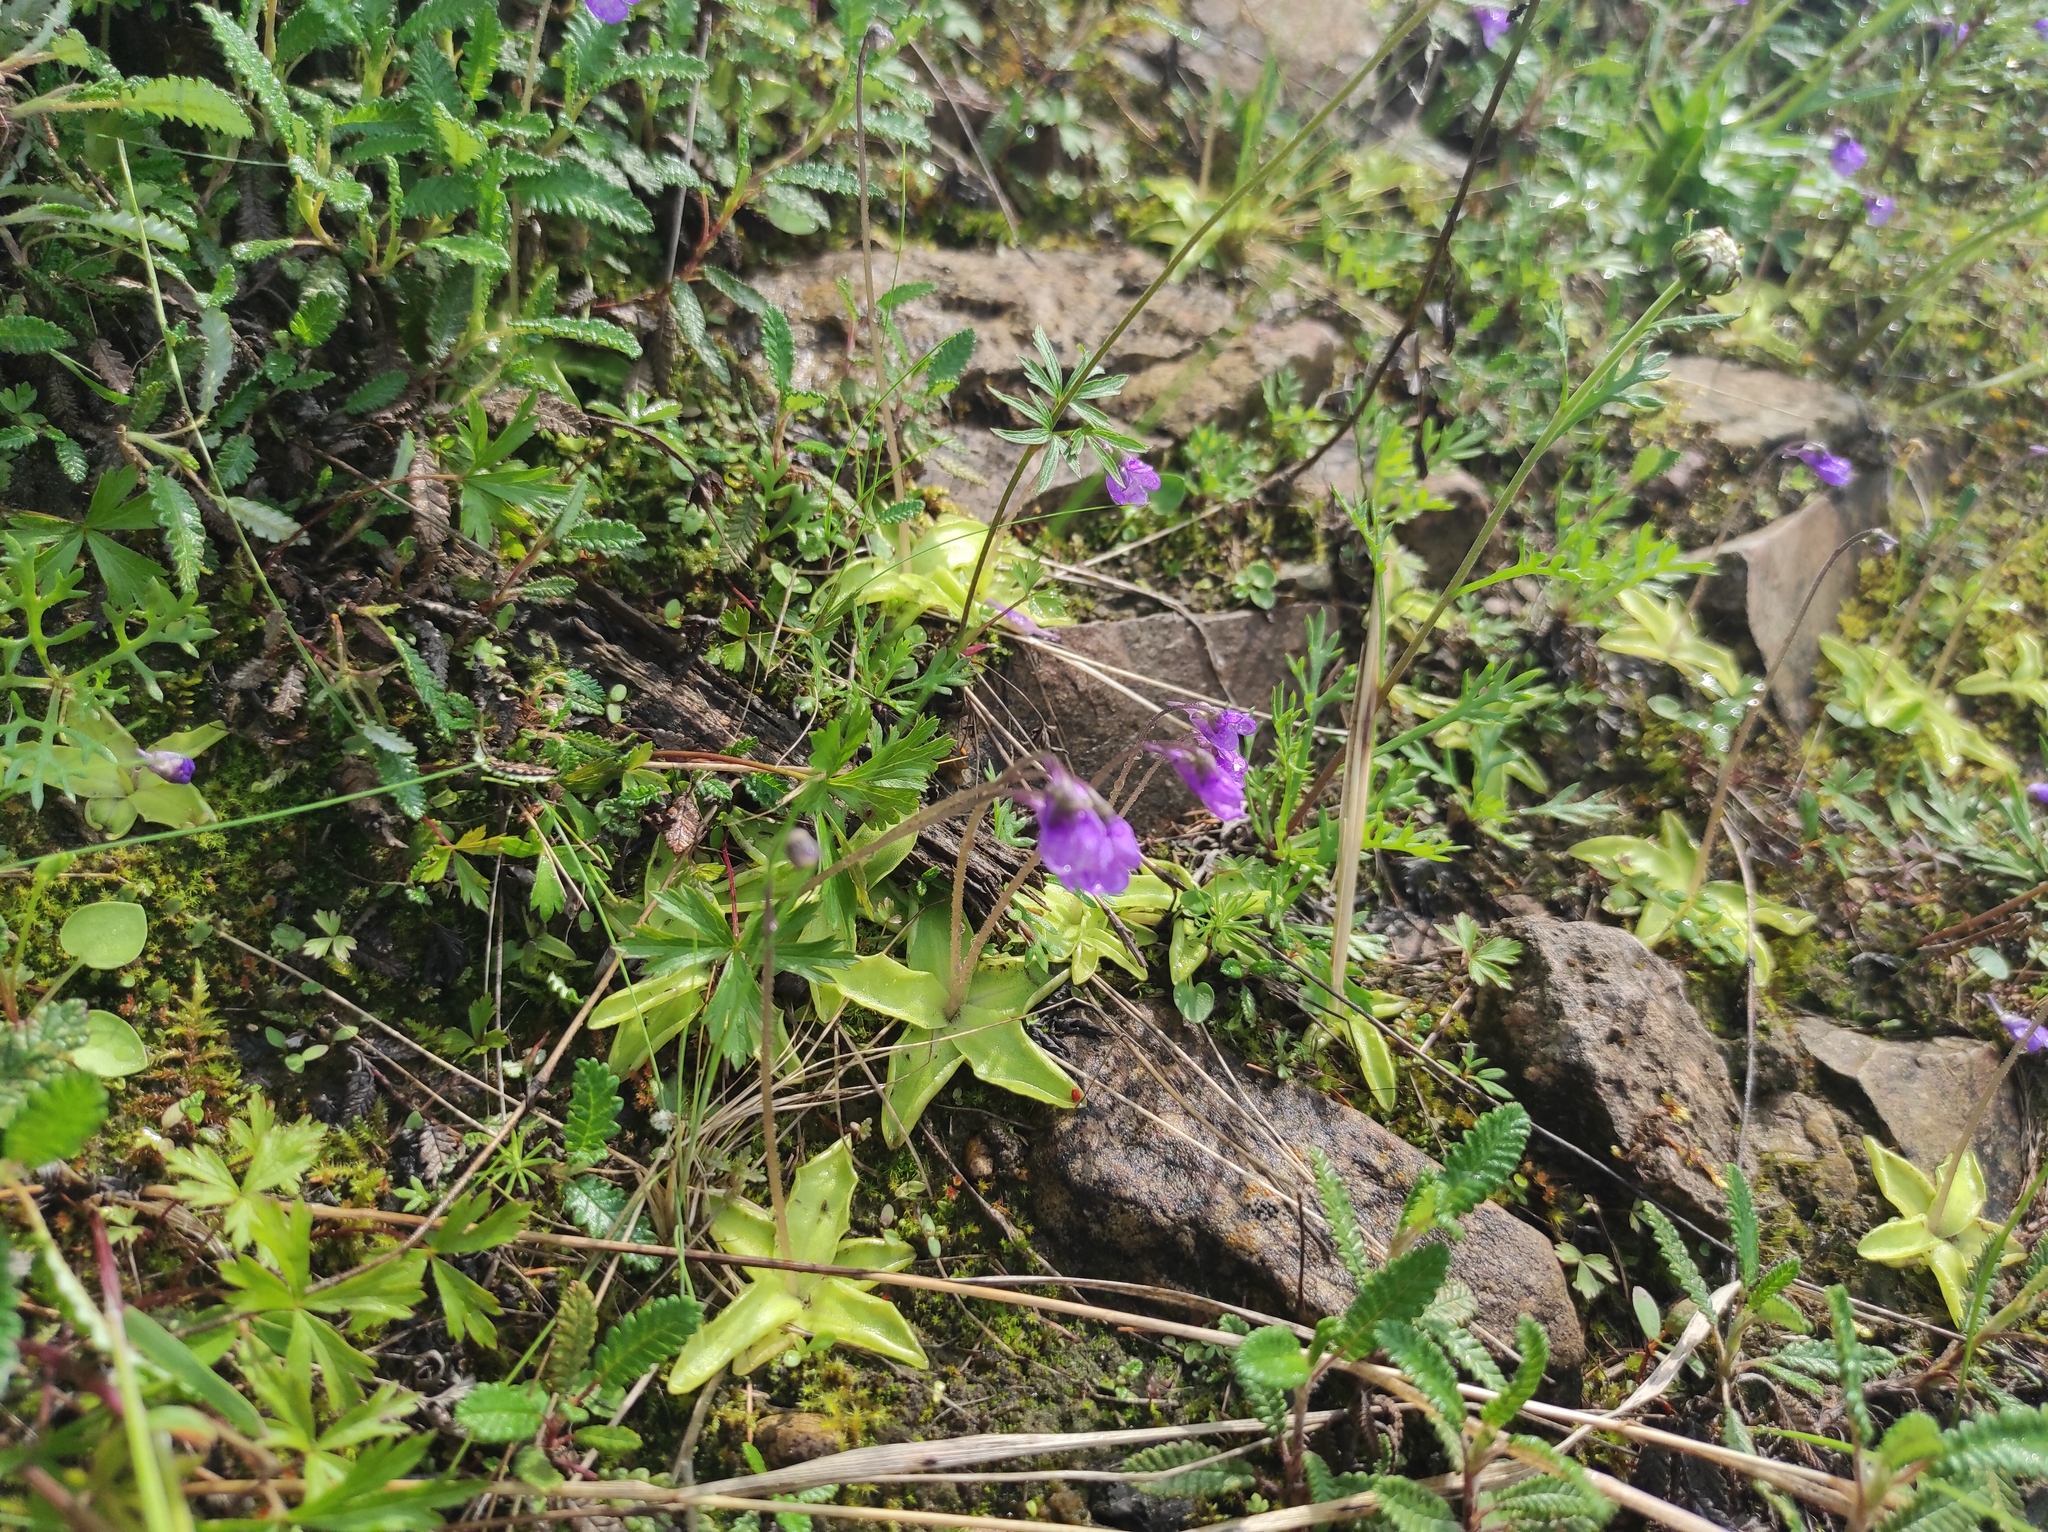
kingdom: Plantae
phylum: Tracheophyta
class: Magnoliopsida
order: Lamiales
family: Lentibulariaceae
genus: Pinguicula
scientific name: Pinguicula vulgaris
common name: Common butterwort
